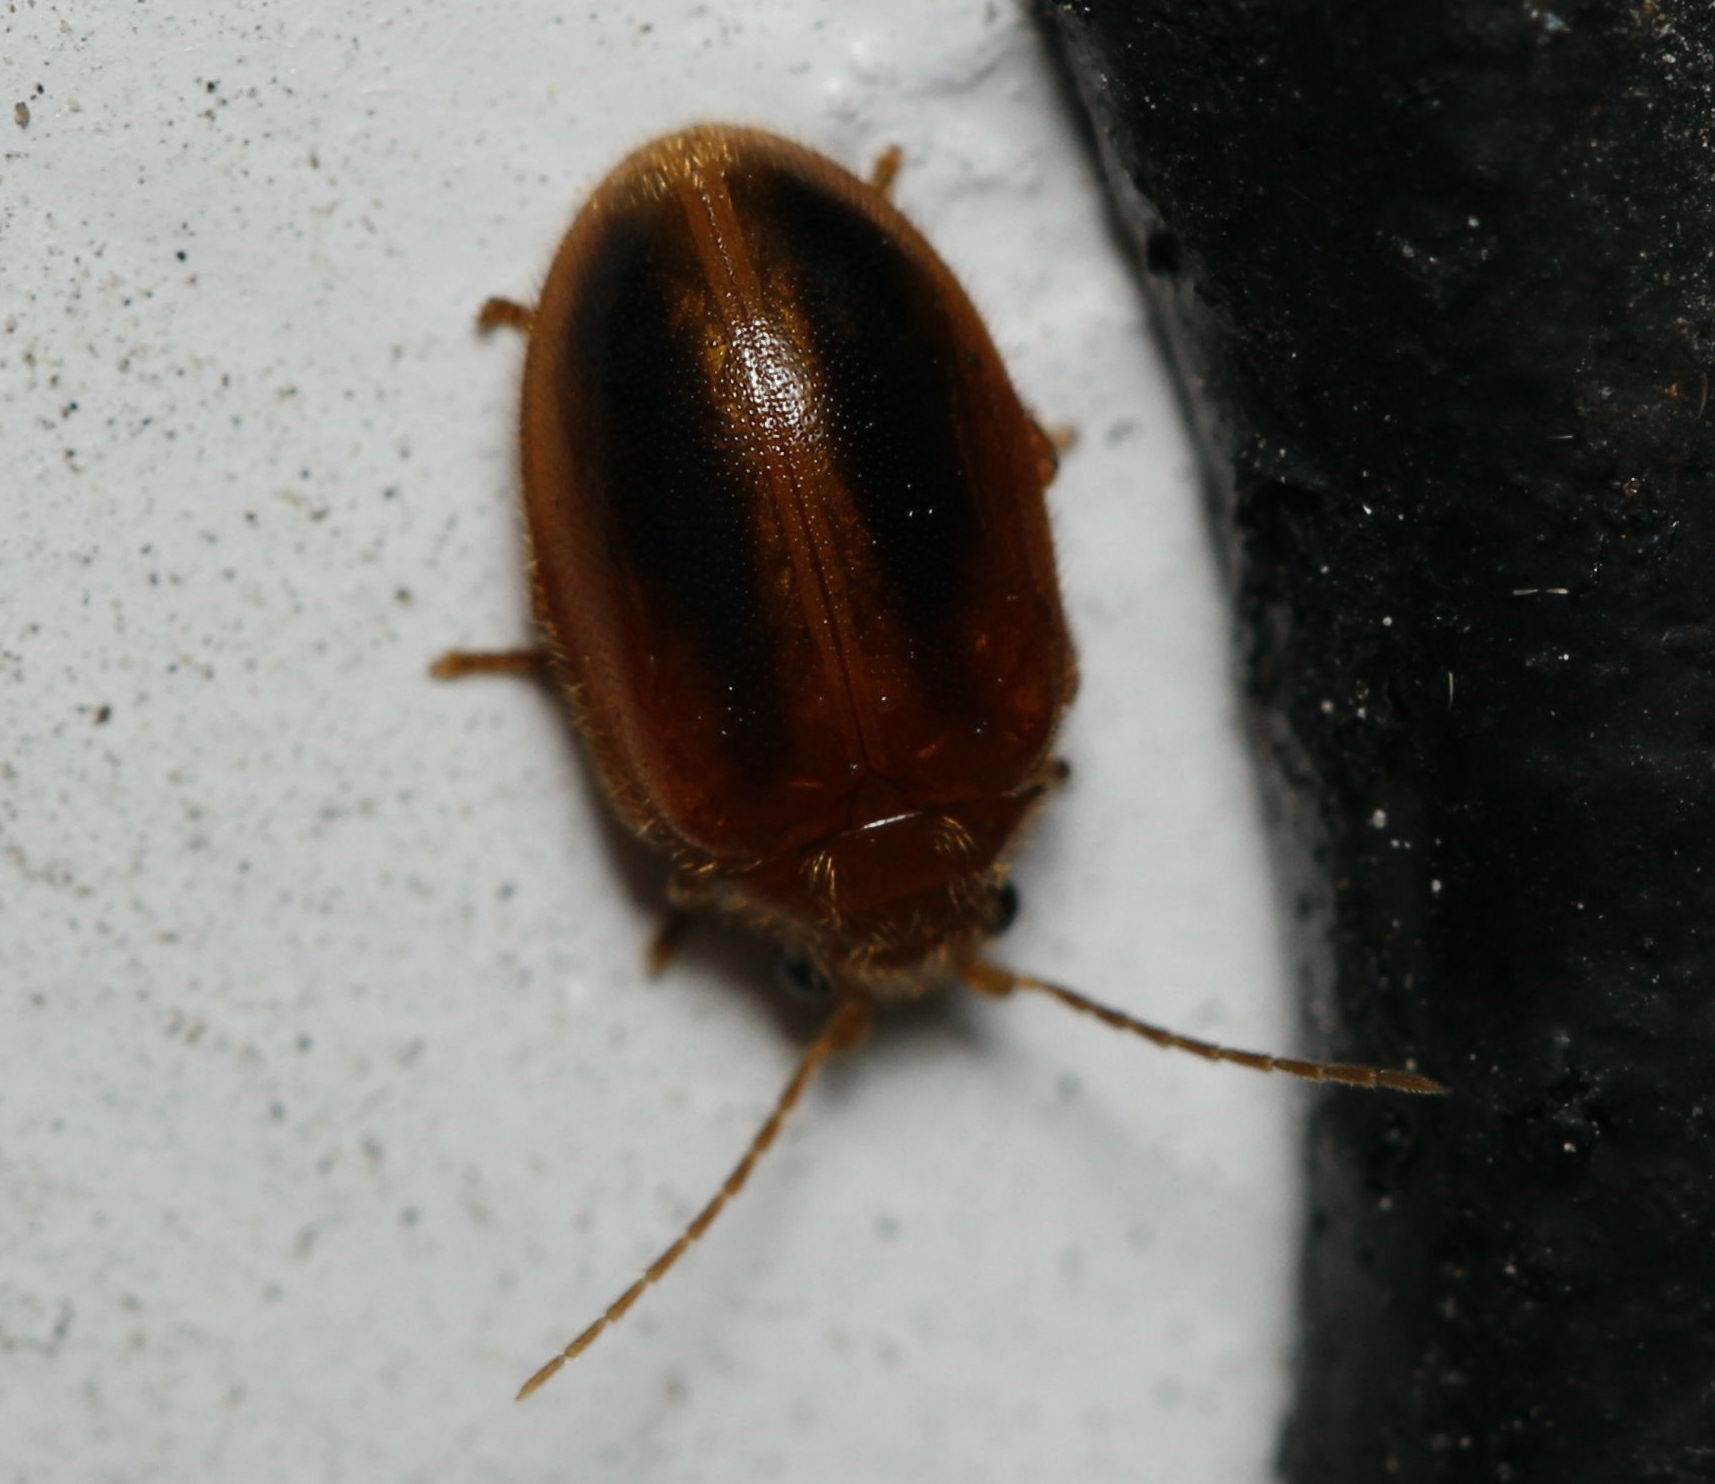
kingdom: Animalia
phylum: Arthropoda
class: Insecta
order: Coleoptera
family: Scirtidae
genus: Prionocyphon
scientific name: Prionocyphon limbatus
